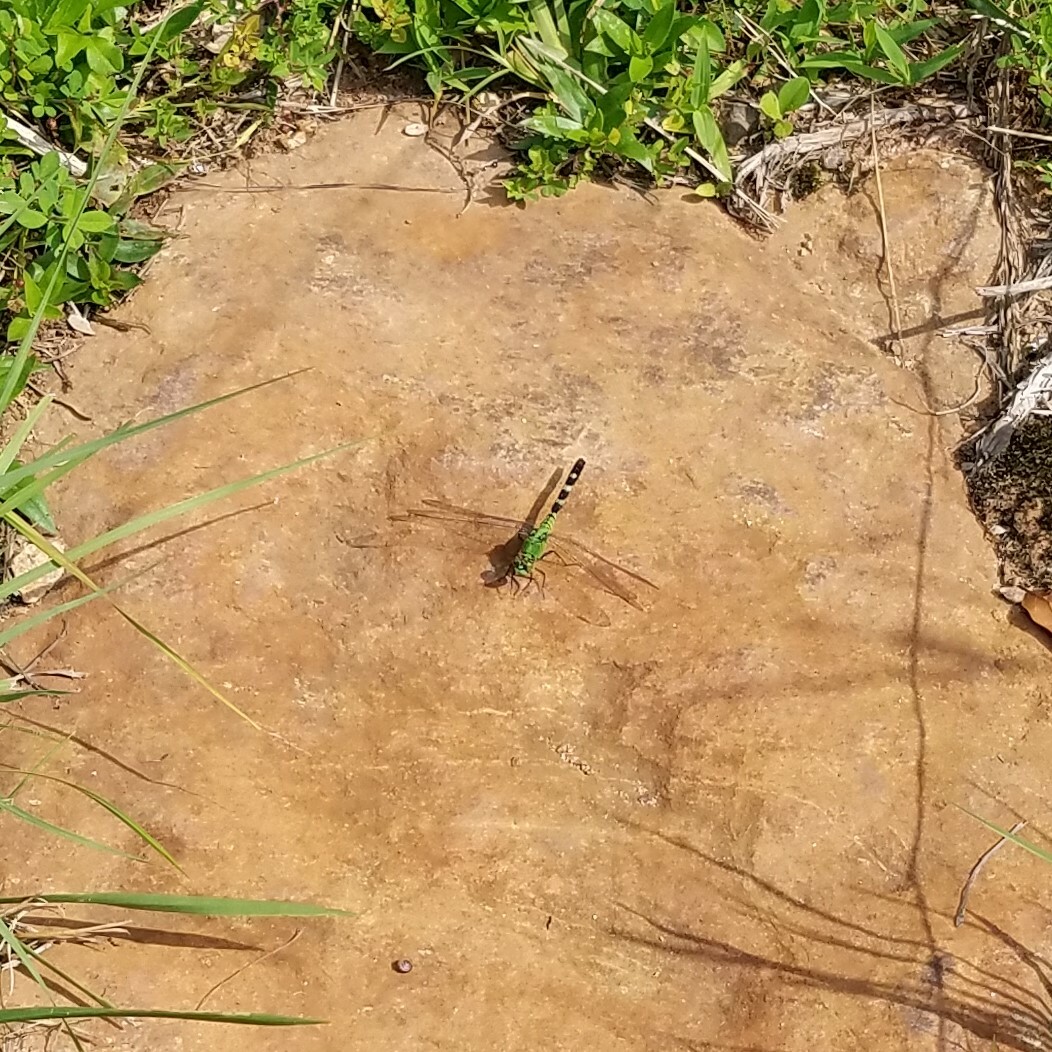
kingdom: Animalia
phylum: Arthropoda
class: Insecta
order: Odonata
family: Libellulidae
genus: Erythemis
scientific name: Erythemis simplicicollis
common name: Eastern pondhawk
